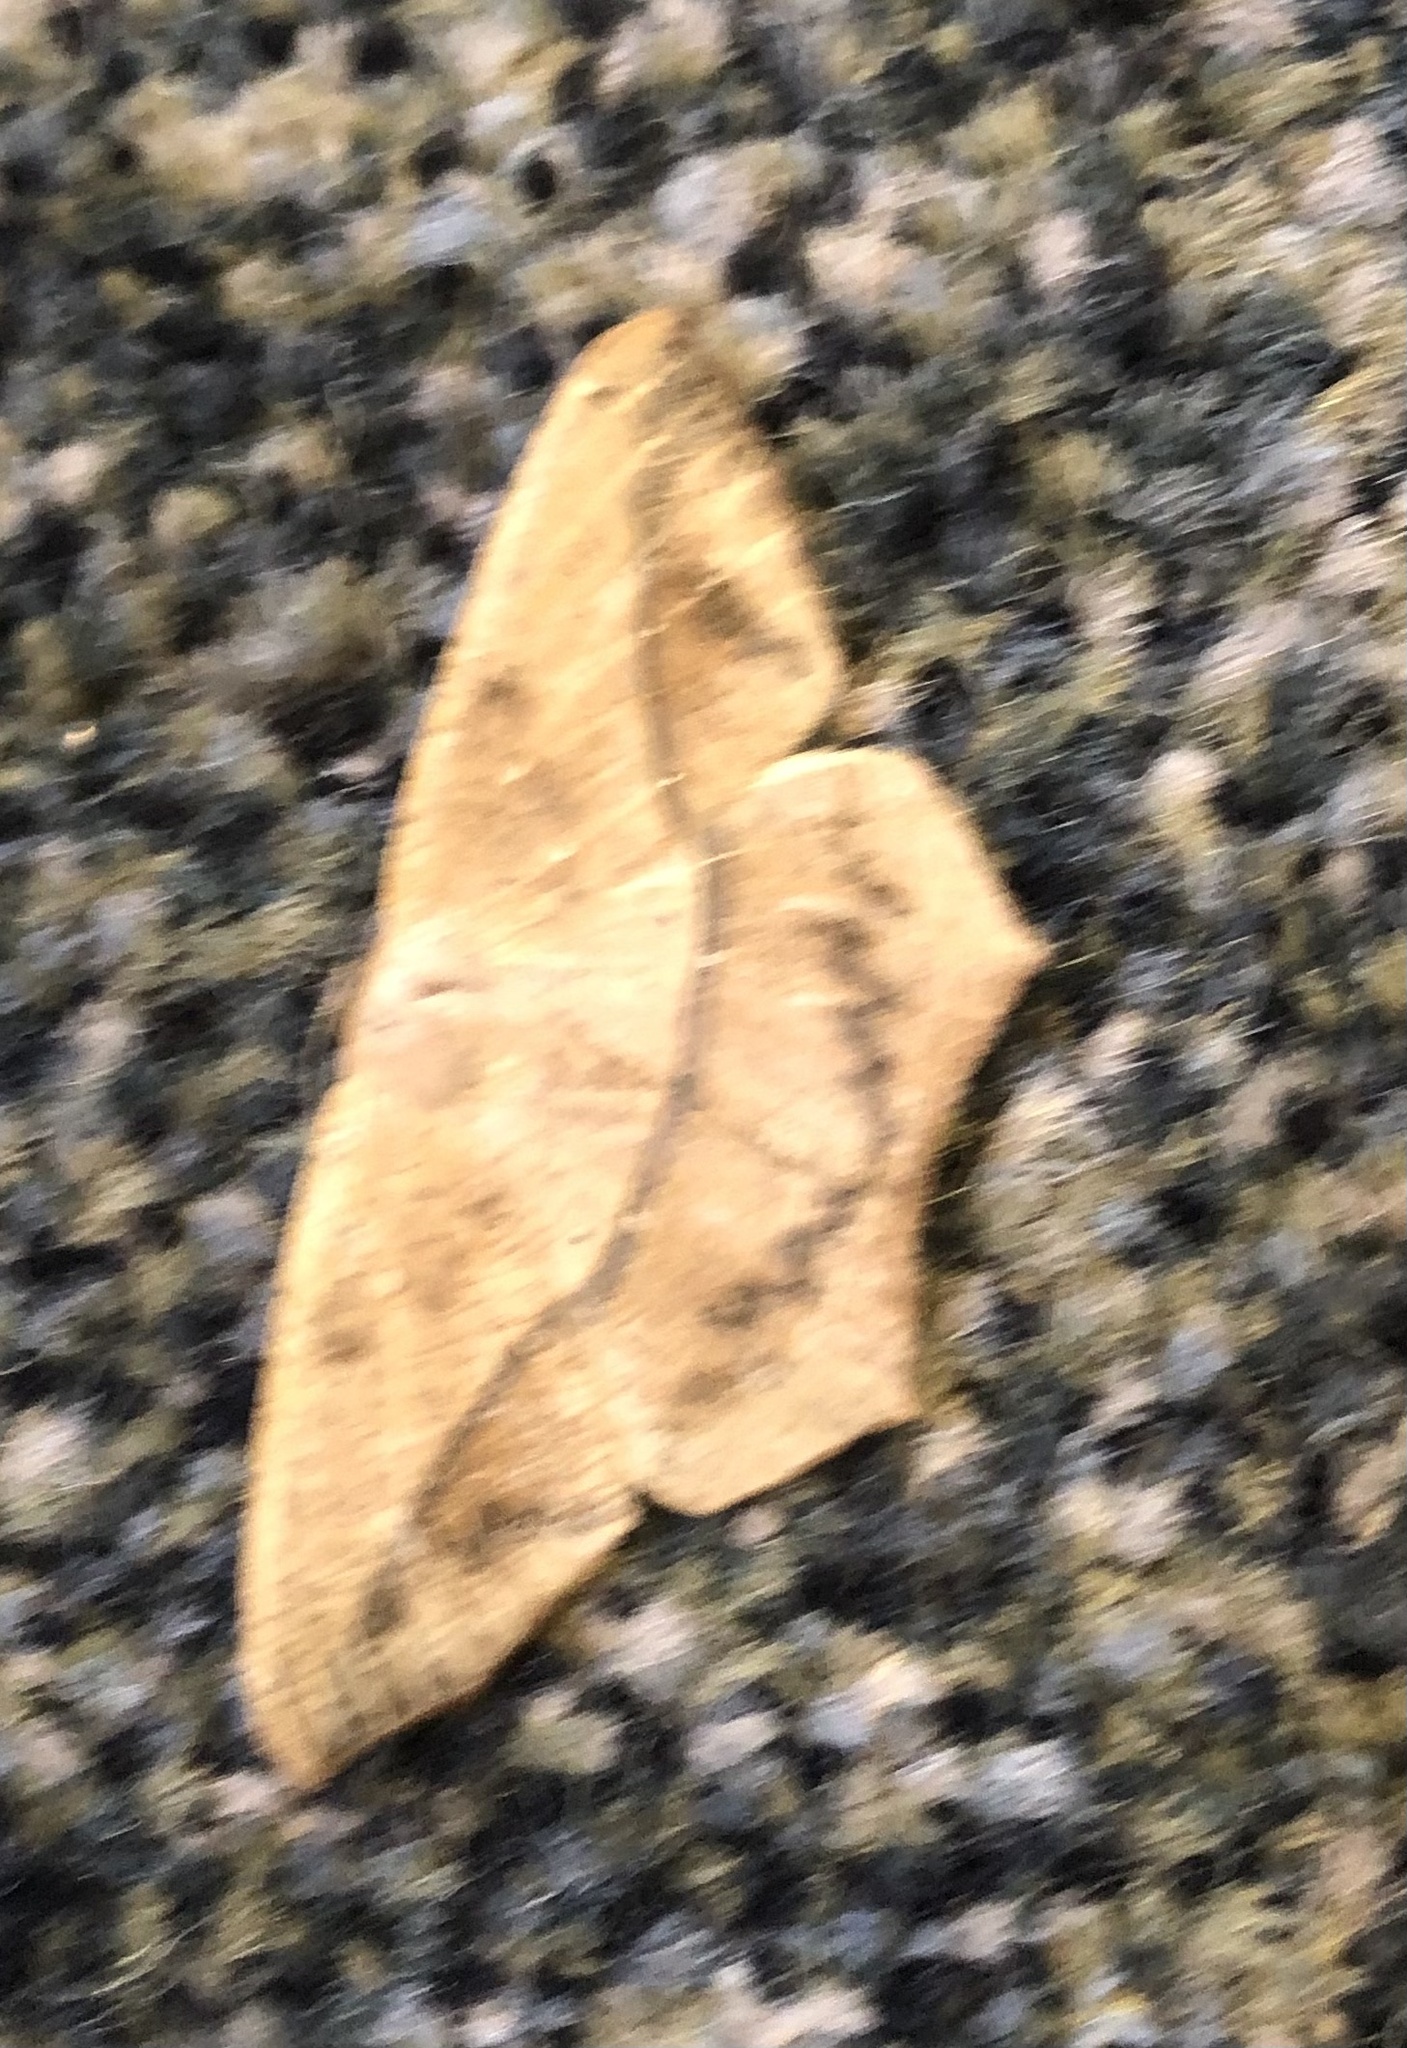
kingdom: Animalia
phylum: Arthropoda
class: Insecta
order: Lepidoptera
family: Geometridae
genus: Prochoerodes
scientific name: Prochoerodes lineola
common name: Large maple spanworm
